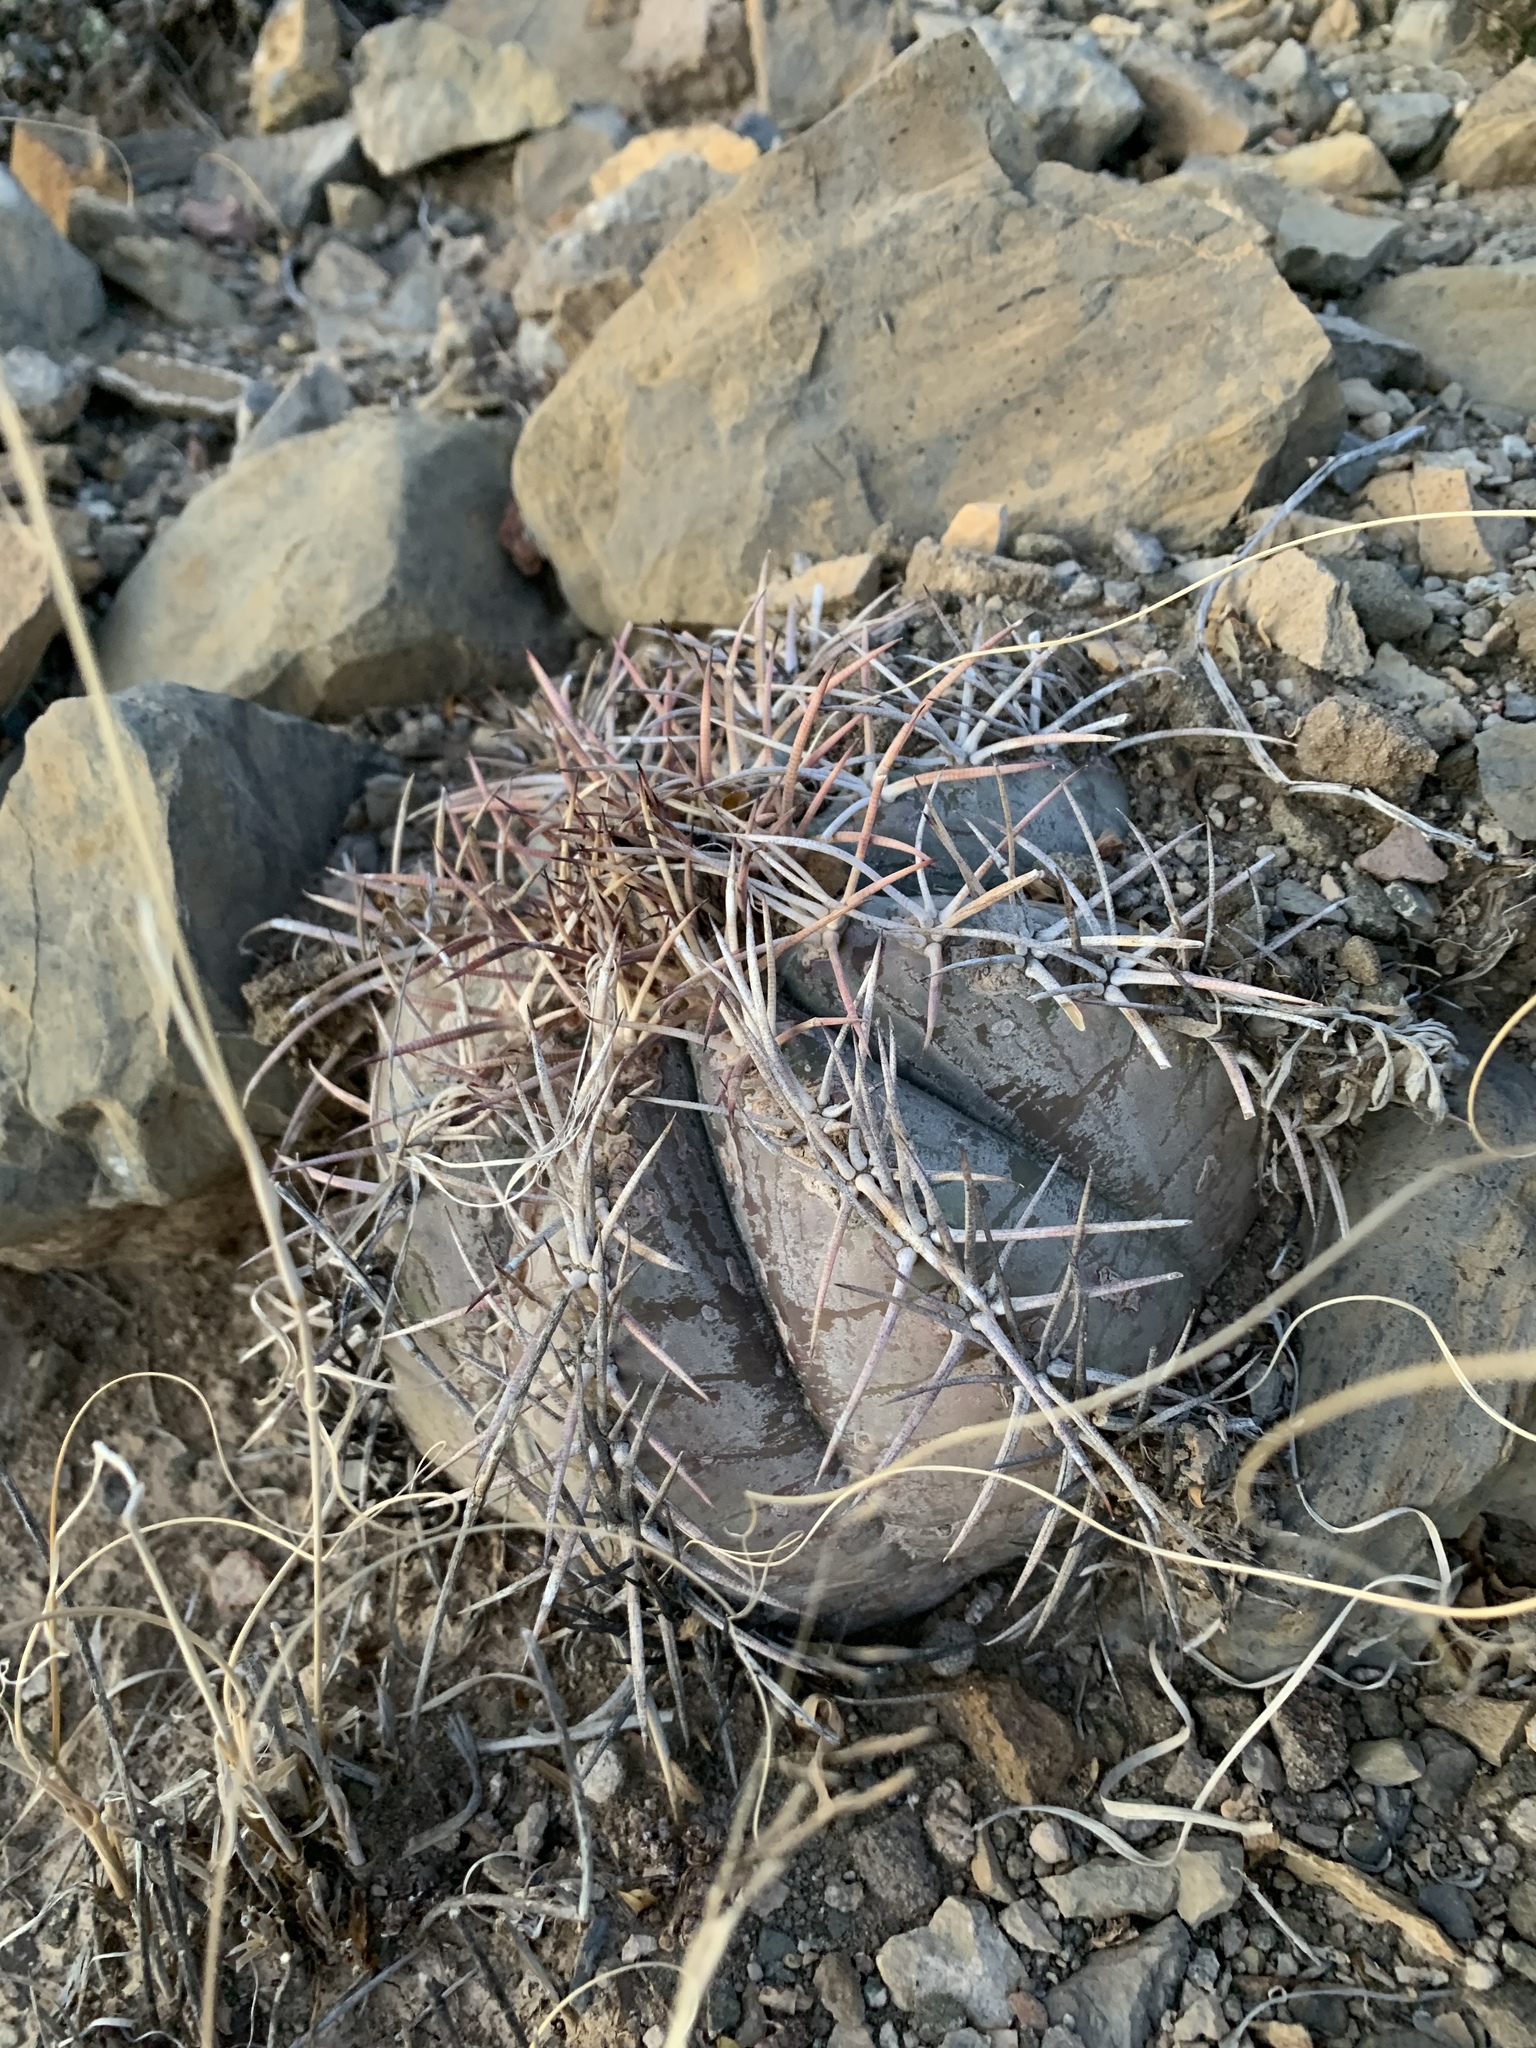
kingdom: Plantae
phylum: Tracheophyta
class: Magnoliopsida
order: Caryophyllales
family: Cactaceae
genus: Echinocactus
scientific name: Echinocactus horizonthalonius
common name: Devilshead
